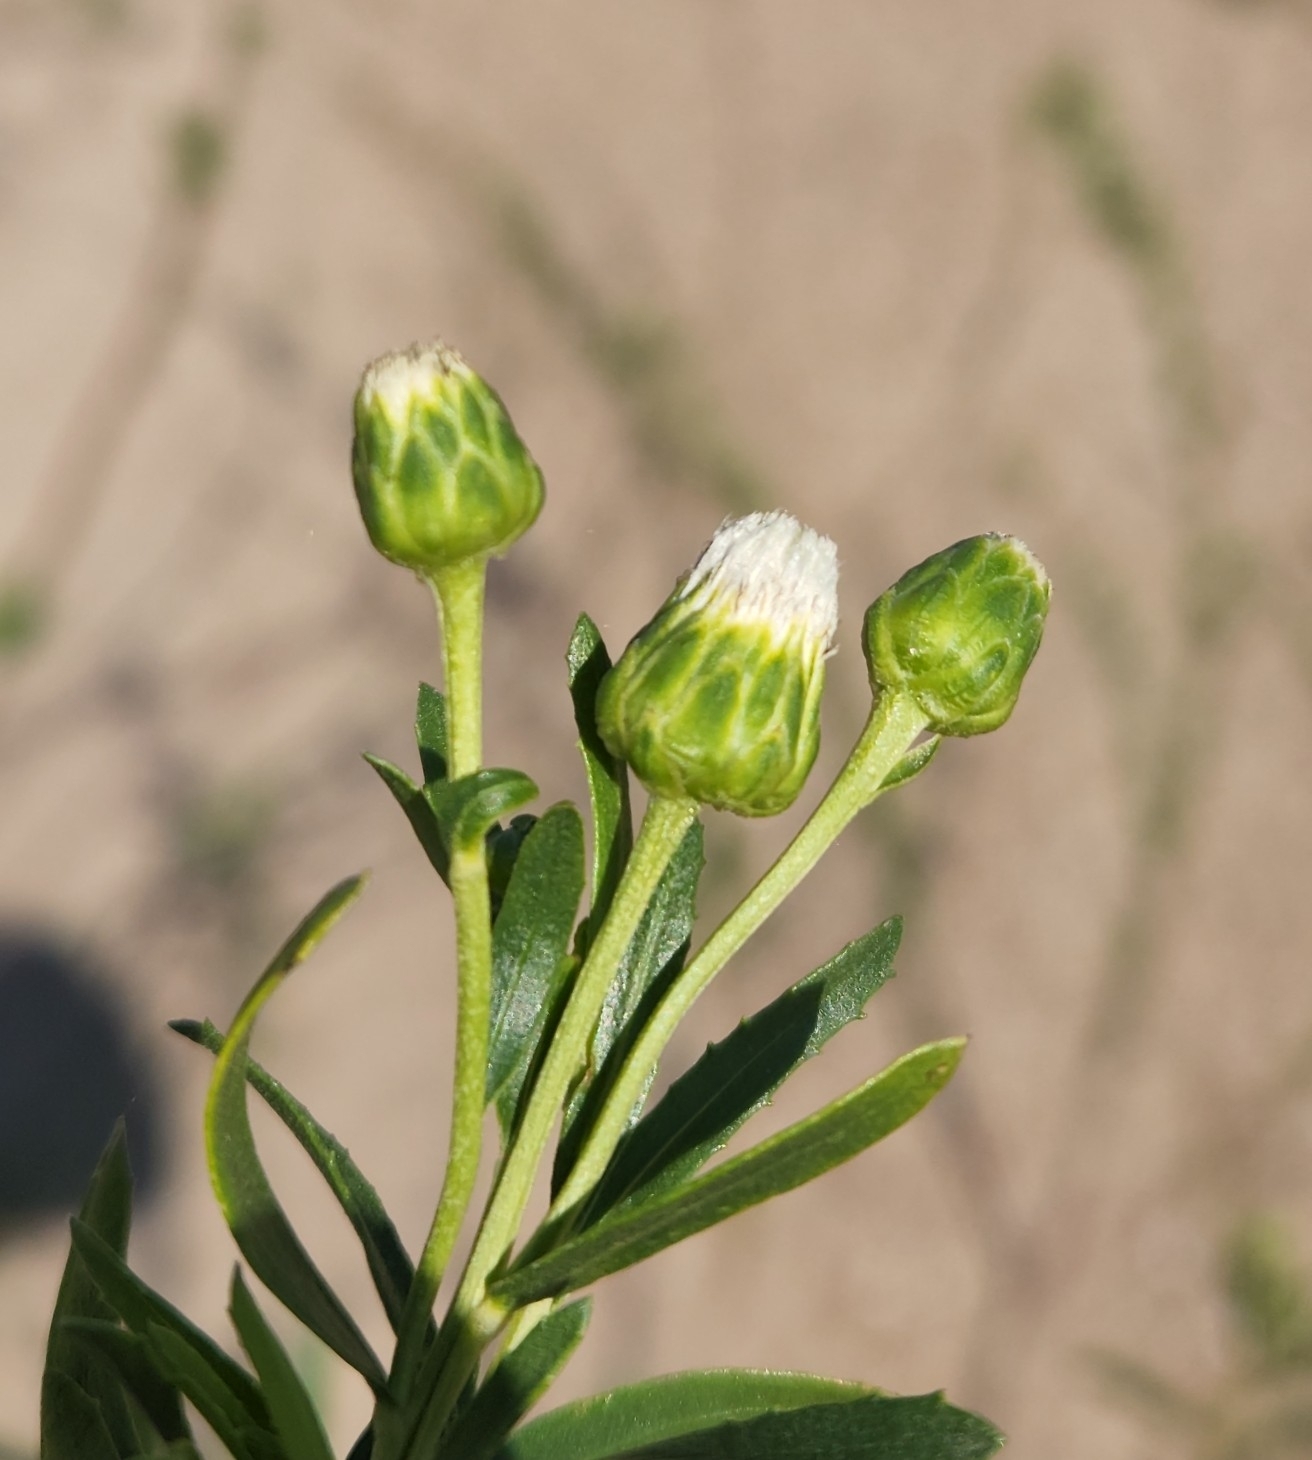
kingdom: Plantae
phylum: Tracheophyta
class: Magnoliopsida
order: Asterales
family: Asteraceae
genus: Baccharis
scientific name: Baccharis arenaria
